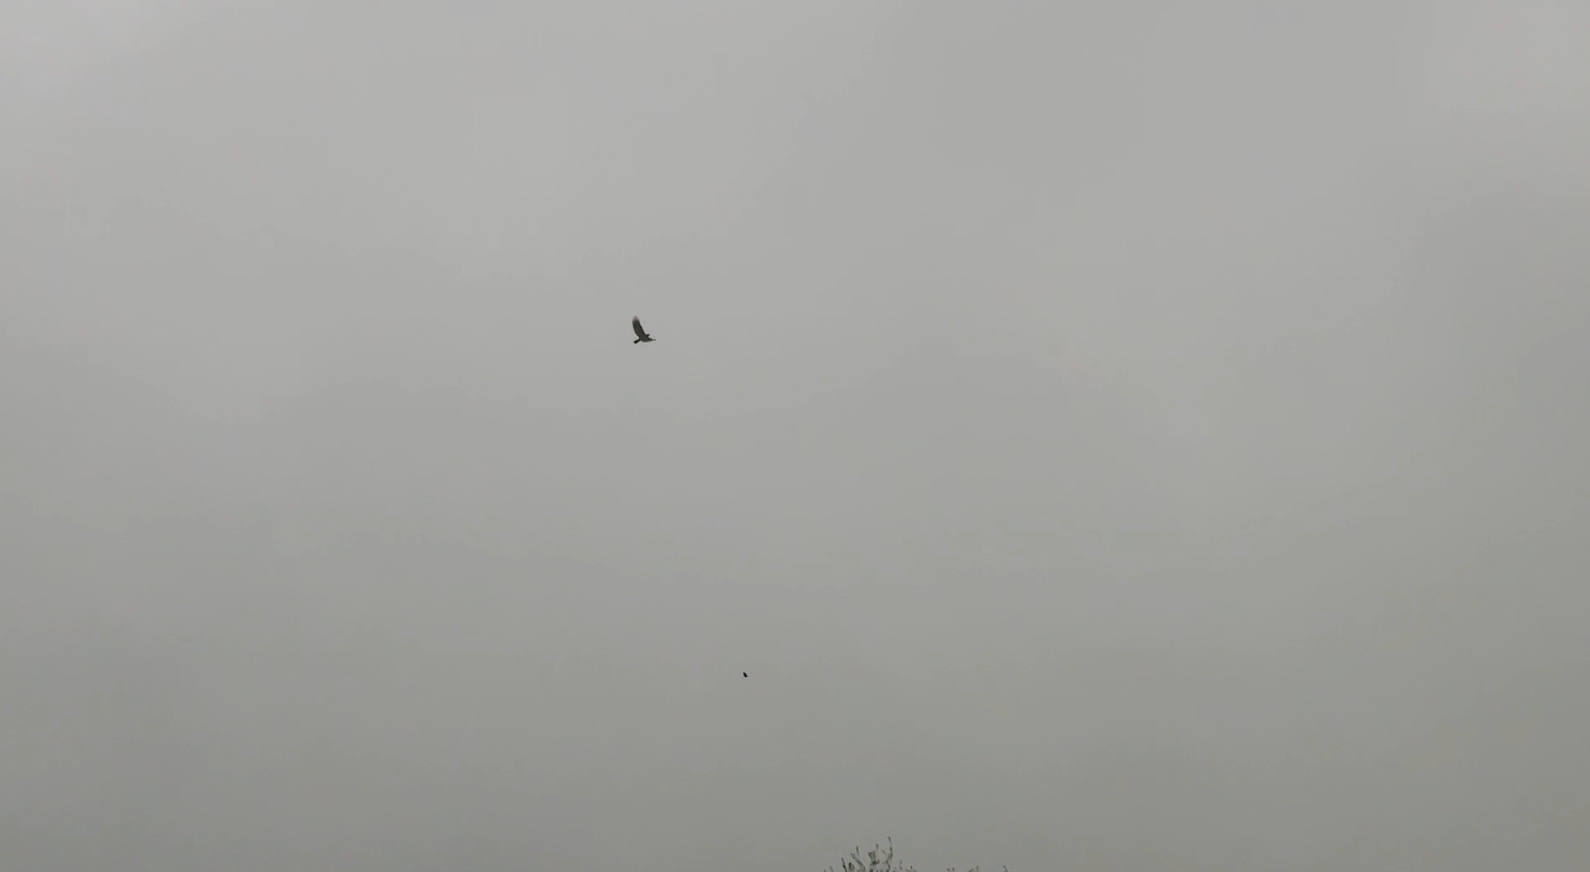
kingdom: Animalia
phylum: Chordata
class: Aves
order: Accipitriformes
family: Accipitridae
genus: Buteo
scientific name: Buteo jamaicensis
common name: Red-tailed hawk
